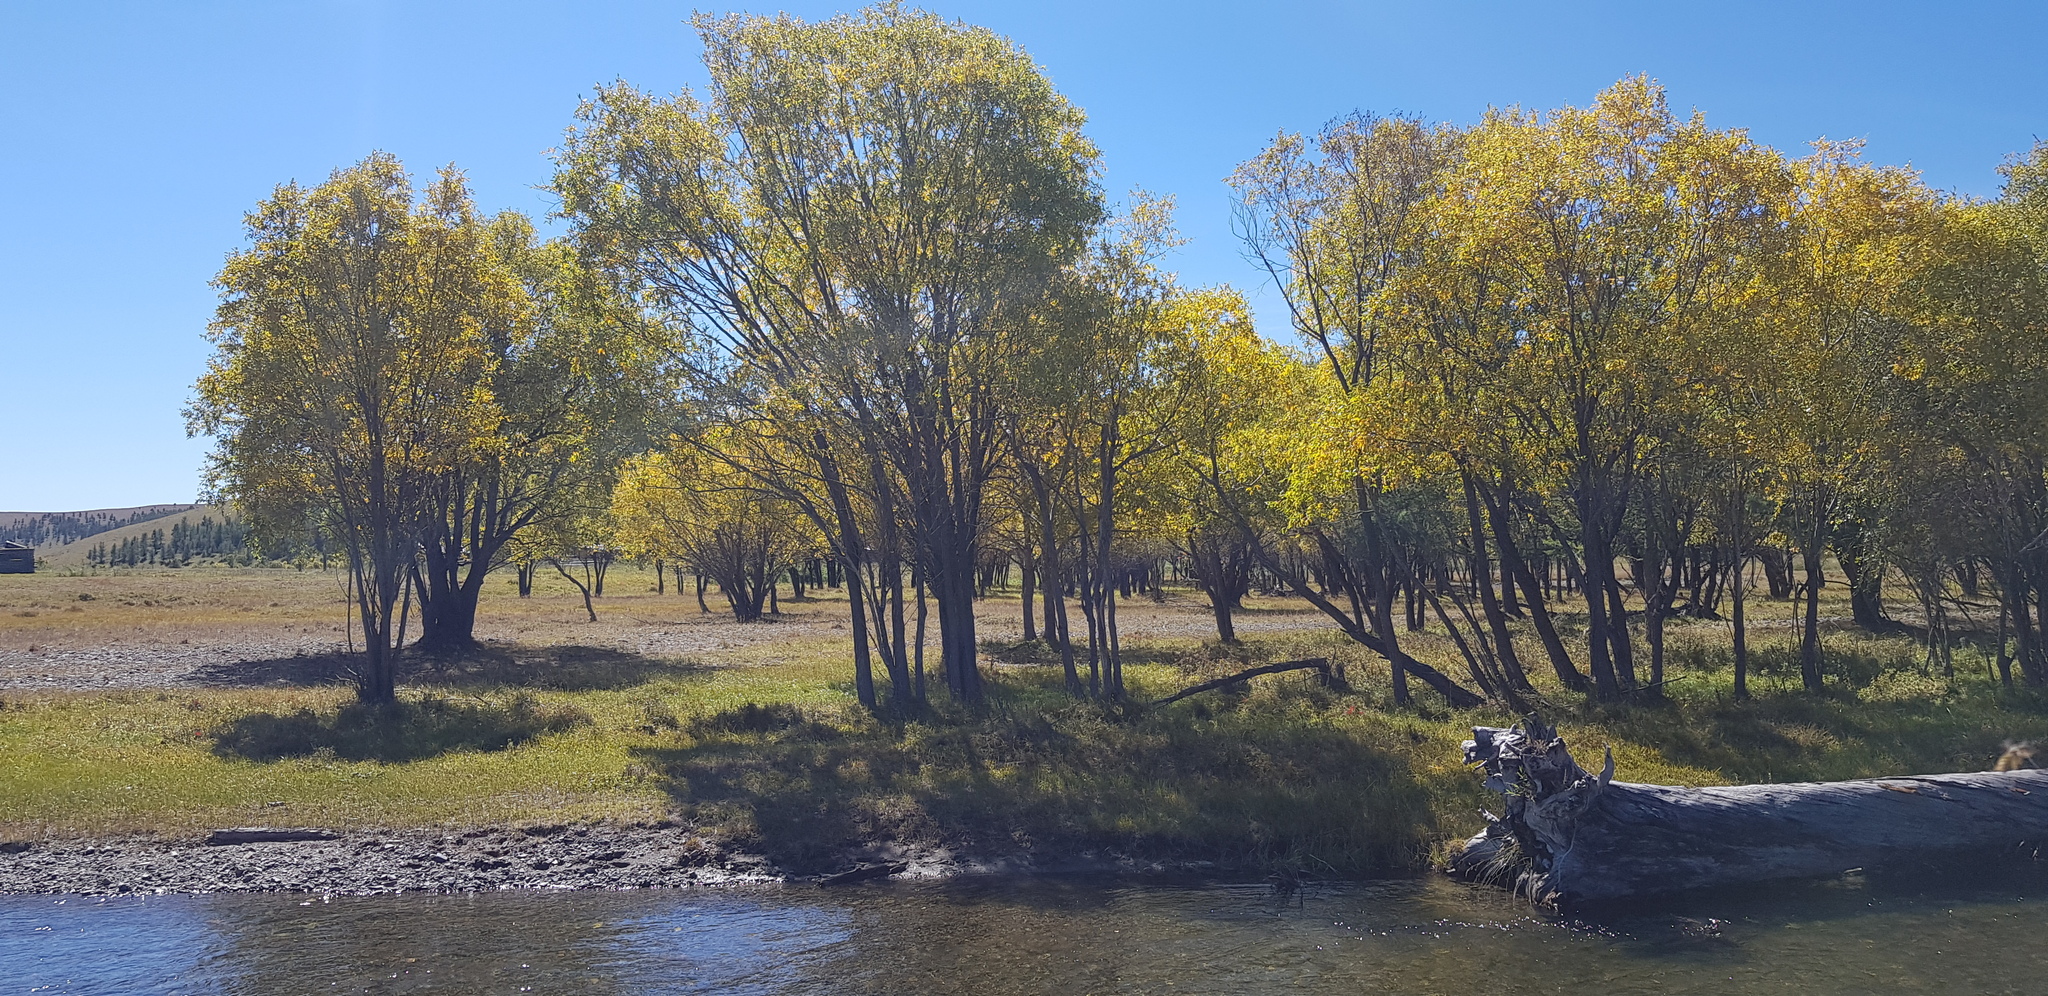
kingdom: Plantae
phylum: Tracheophyta
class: Magnoliopsida
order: Malpighiales
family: Salicaceae
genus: Populus
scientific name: Populus tremula
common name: European aspen
